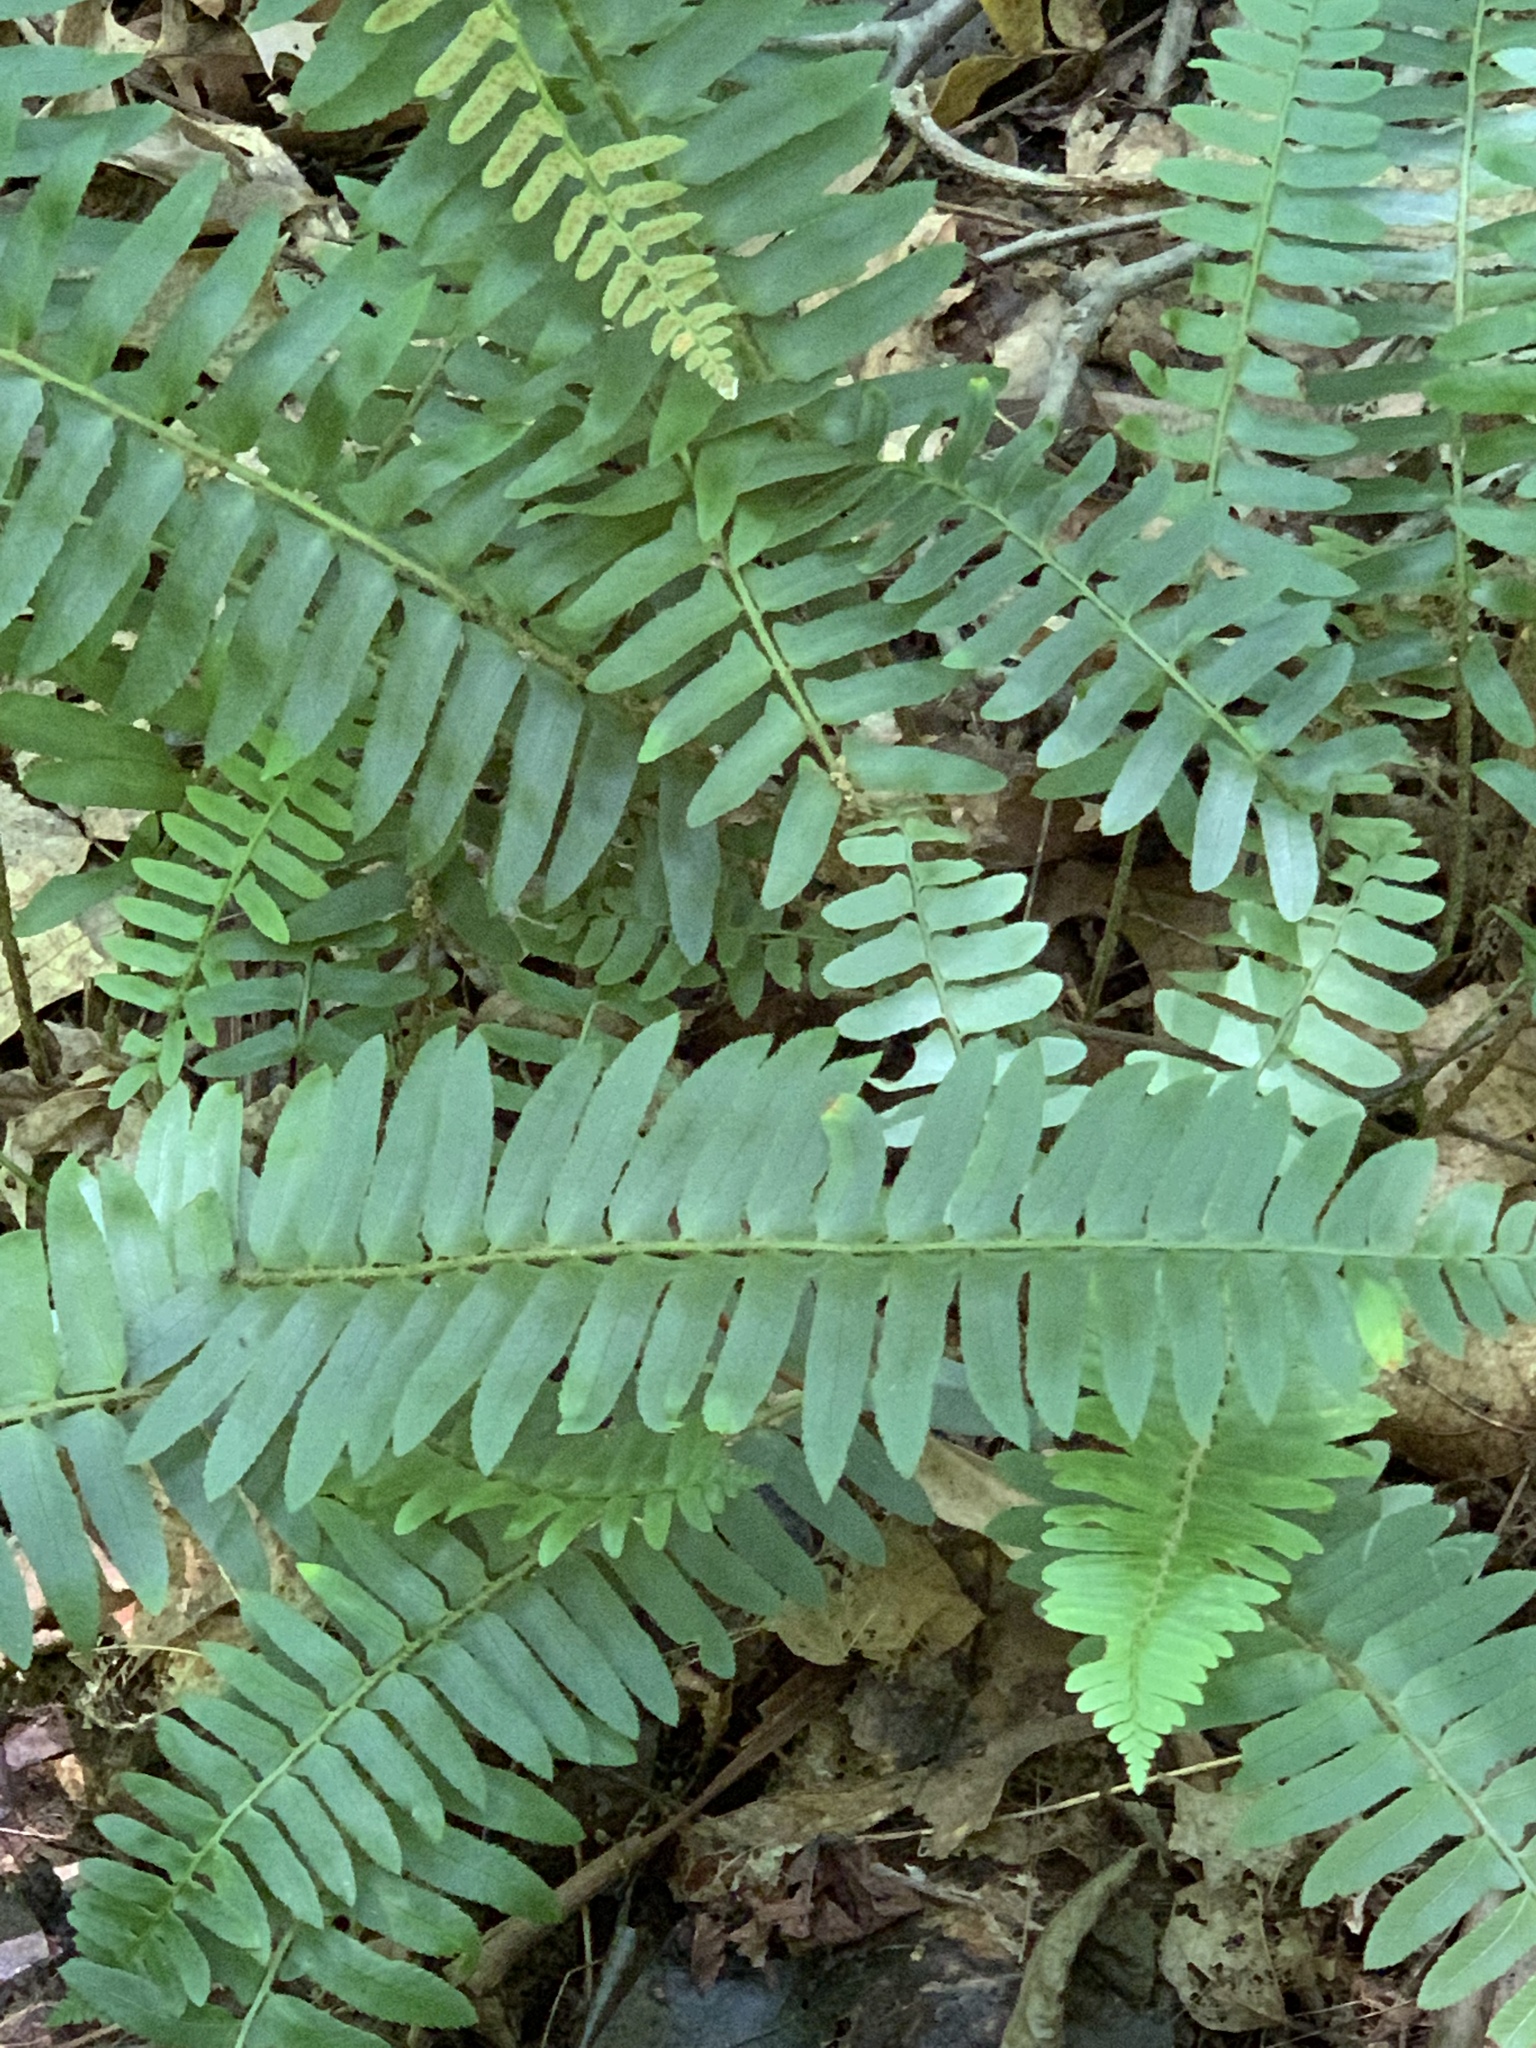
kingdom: Plantae
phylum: Tracheophyta
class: Polypodiopsida
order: Polypodiales
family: Dryopteridaceae
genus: Polystichum
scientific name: Polystichum acrostichoides
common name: Christmas fern
